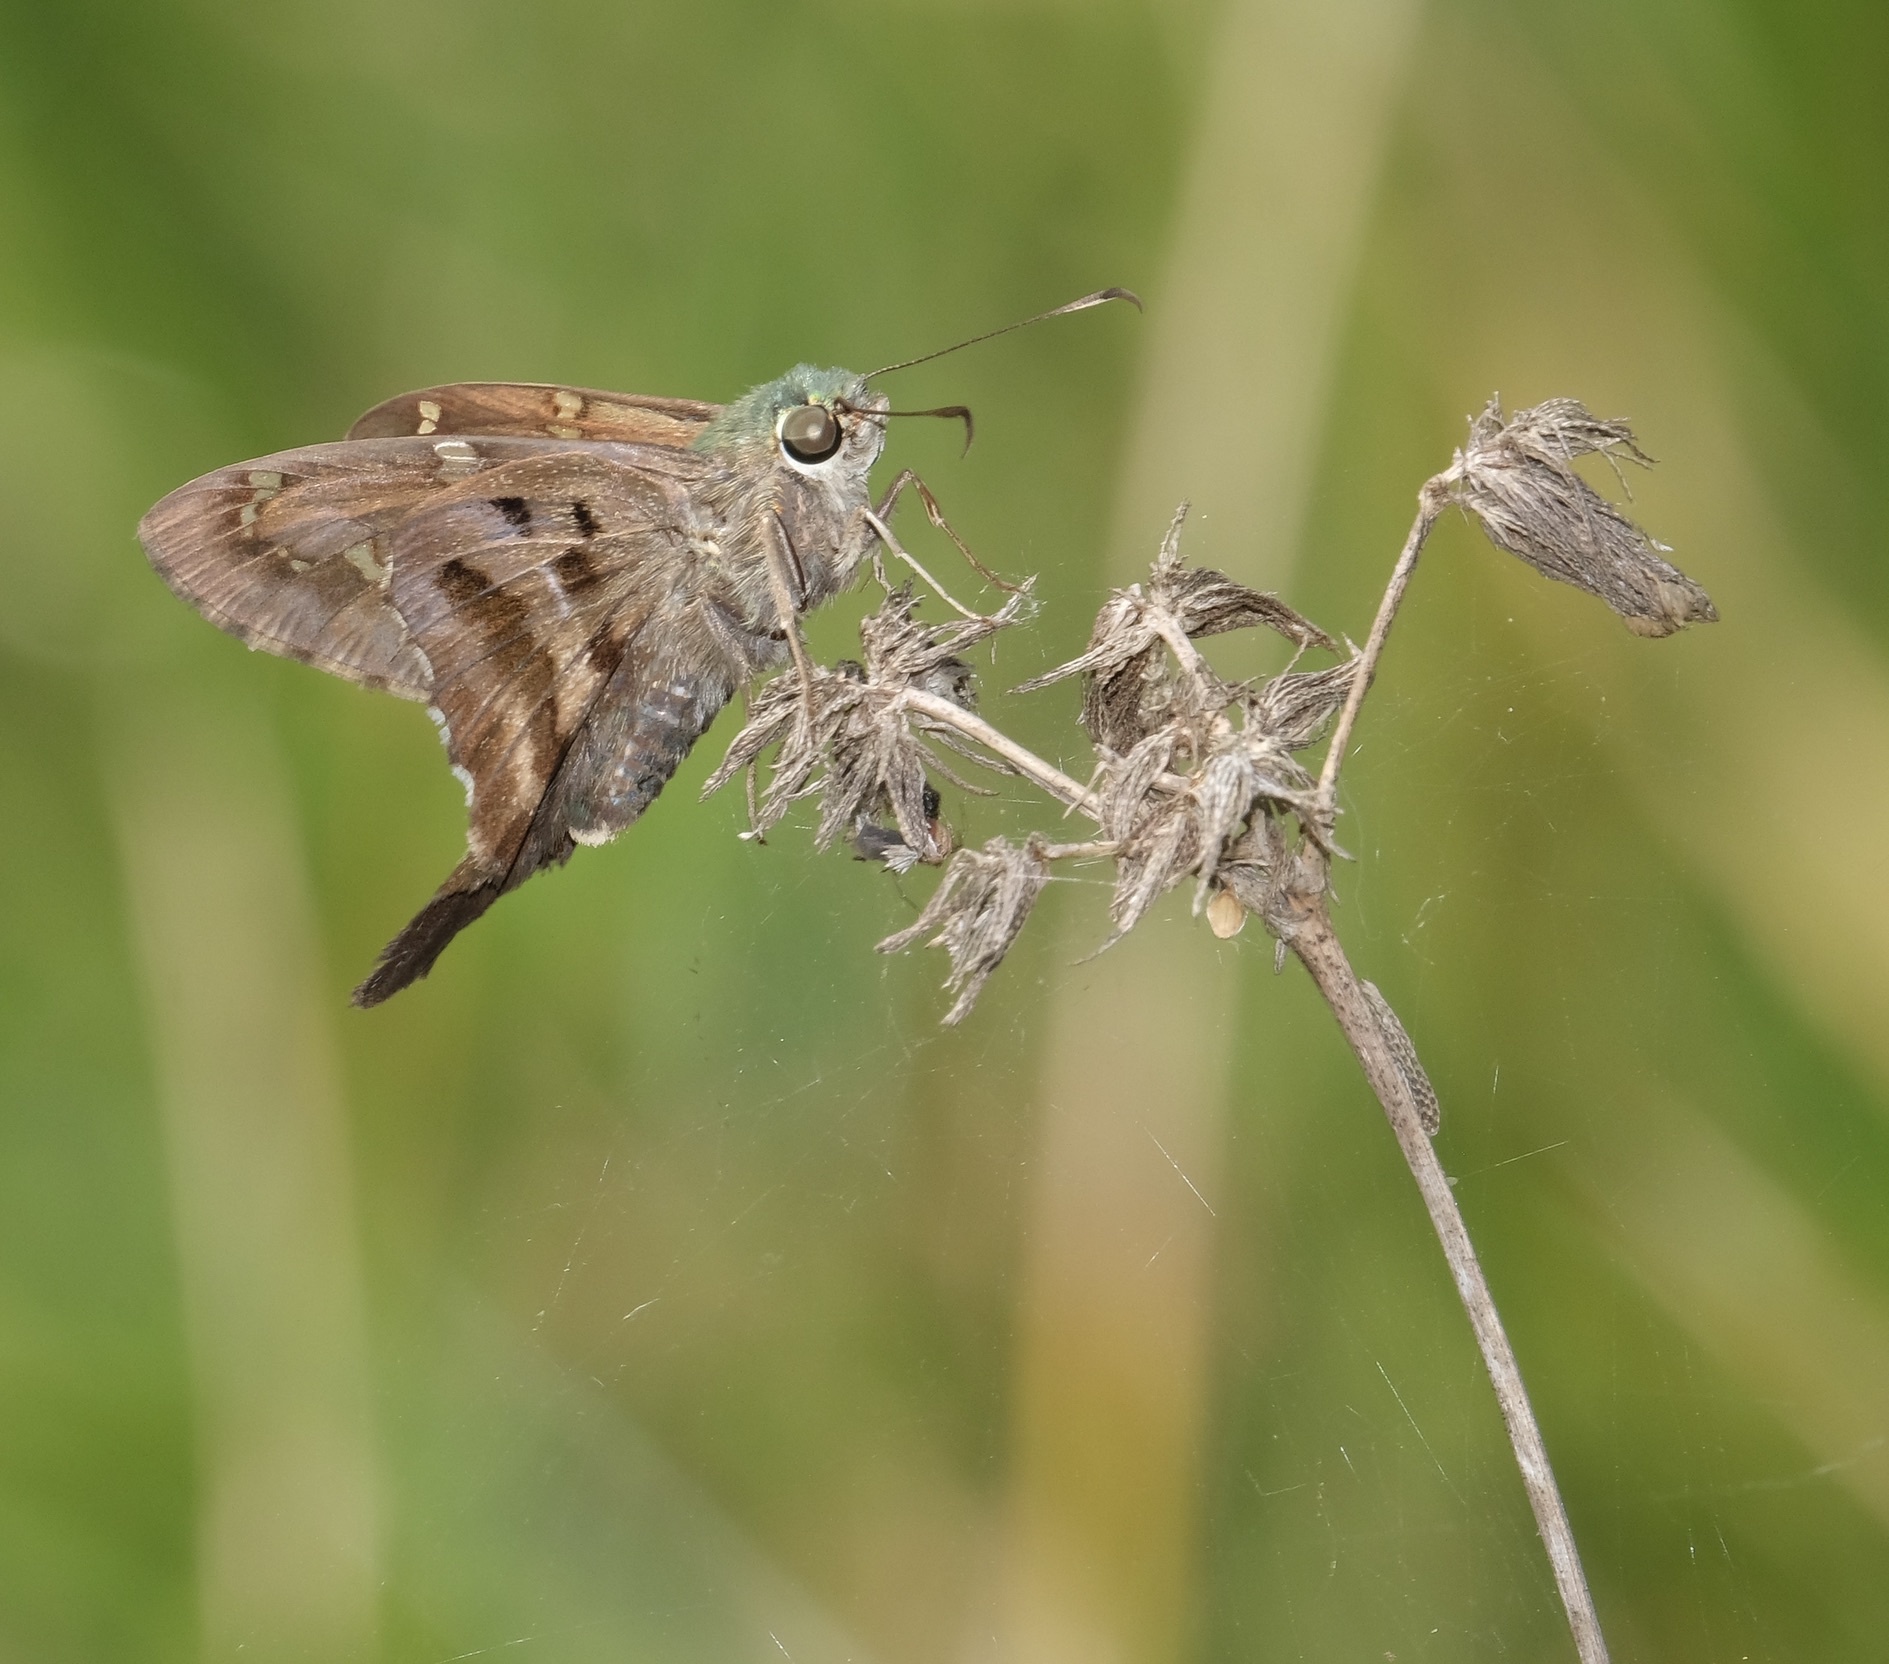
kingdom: Animalia
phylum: Arthropoda
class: Insecta
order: Lepidoptera
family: Hesperiidae
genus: Urbanus
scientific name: Urbanus proteus
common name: Long-tailed skipper
